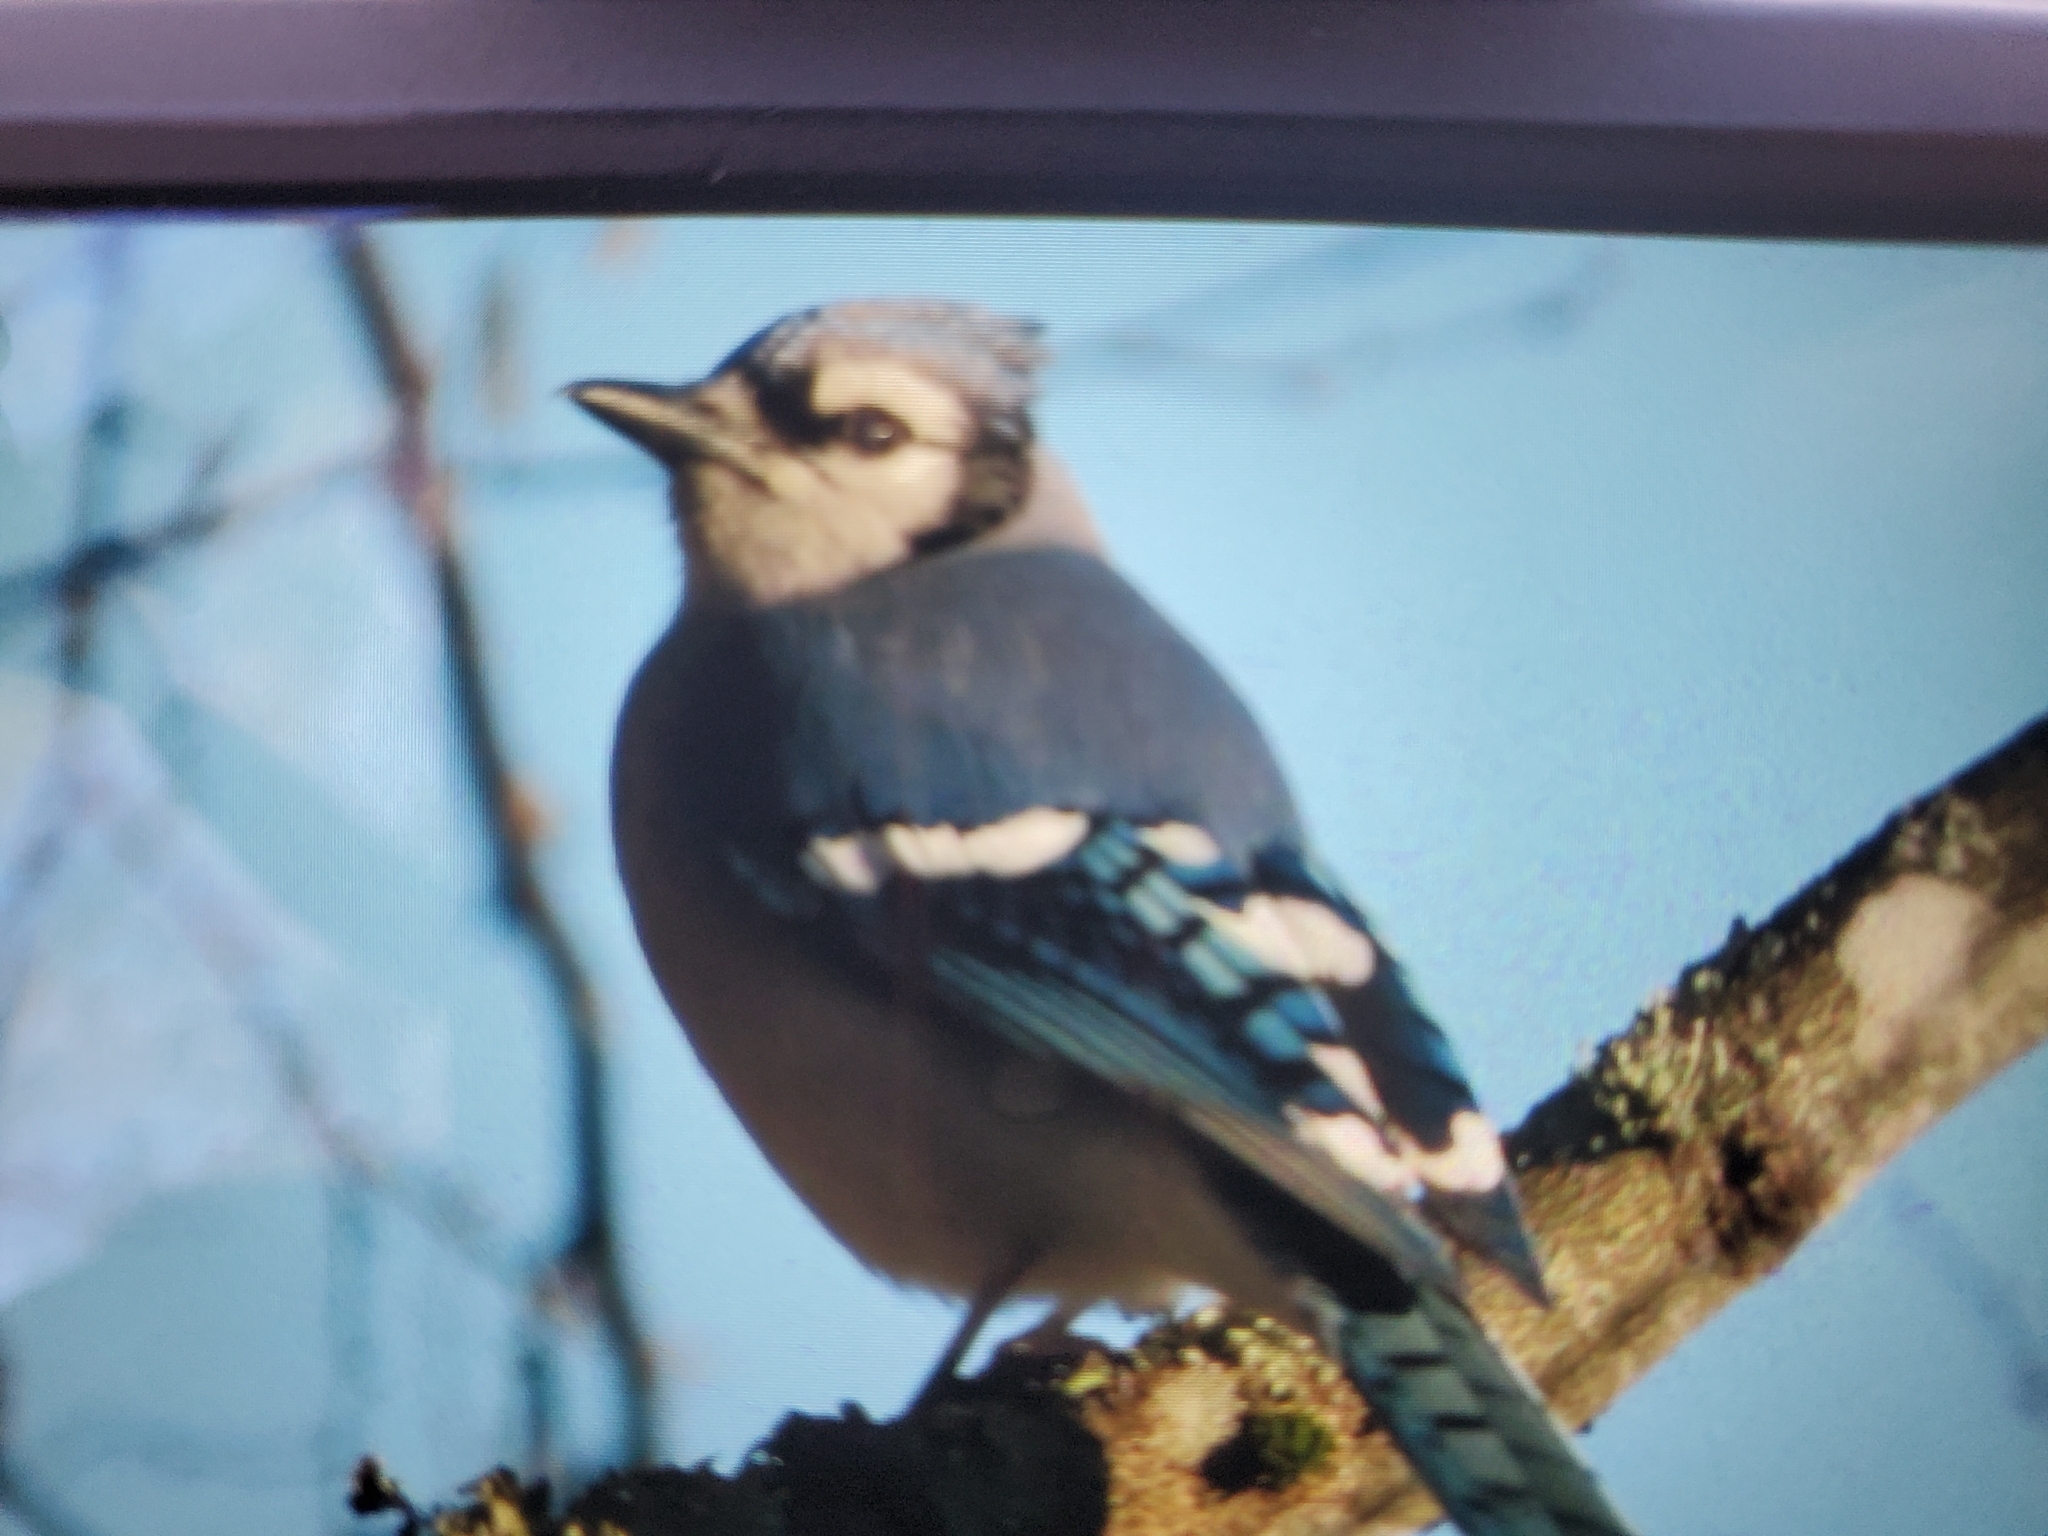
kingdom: Animalia
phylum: Chordata
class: Aves
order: Passeriformes
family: Corvidae
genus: Cyanocitta
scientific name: Cyanocitta cristata
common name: Blue jay
